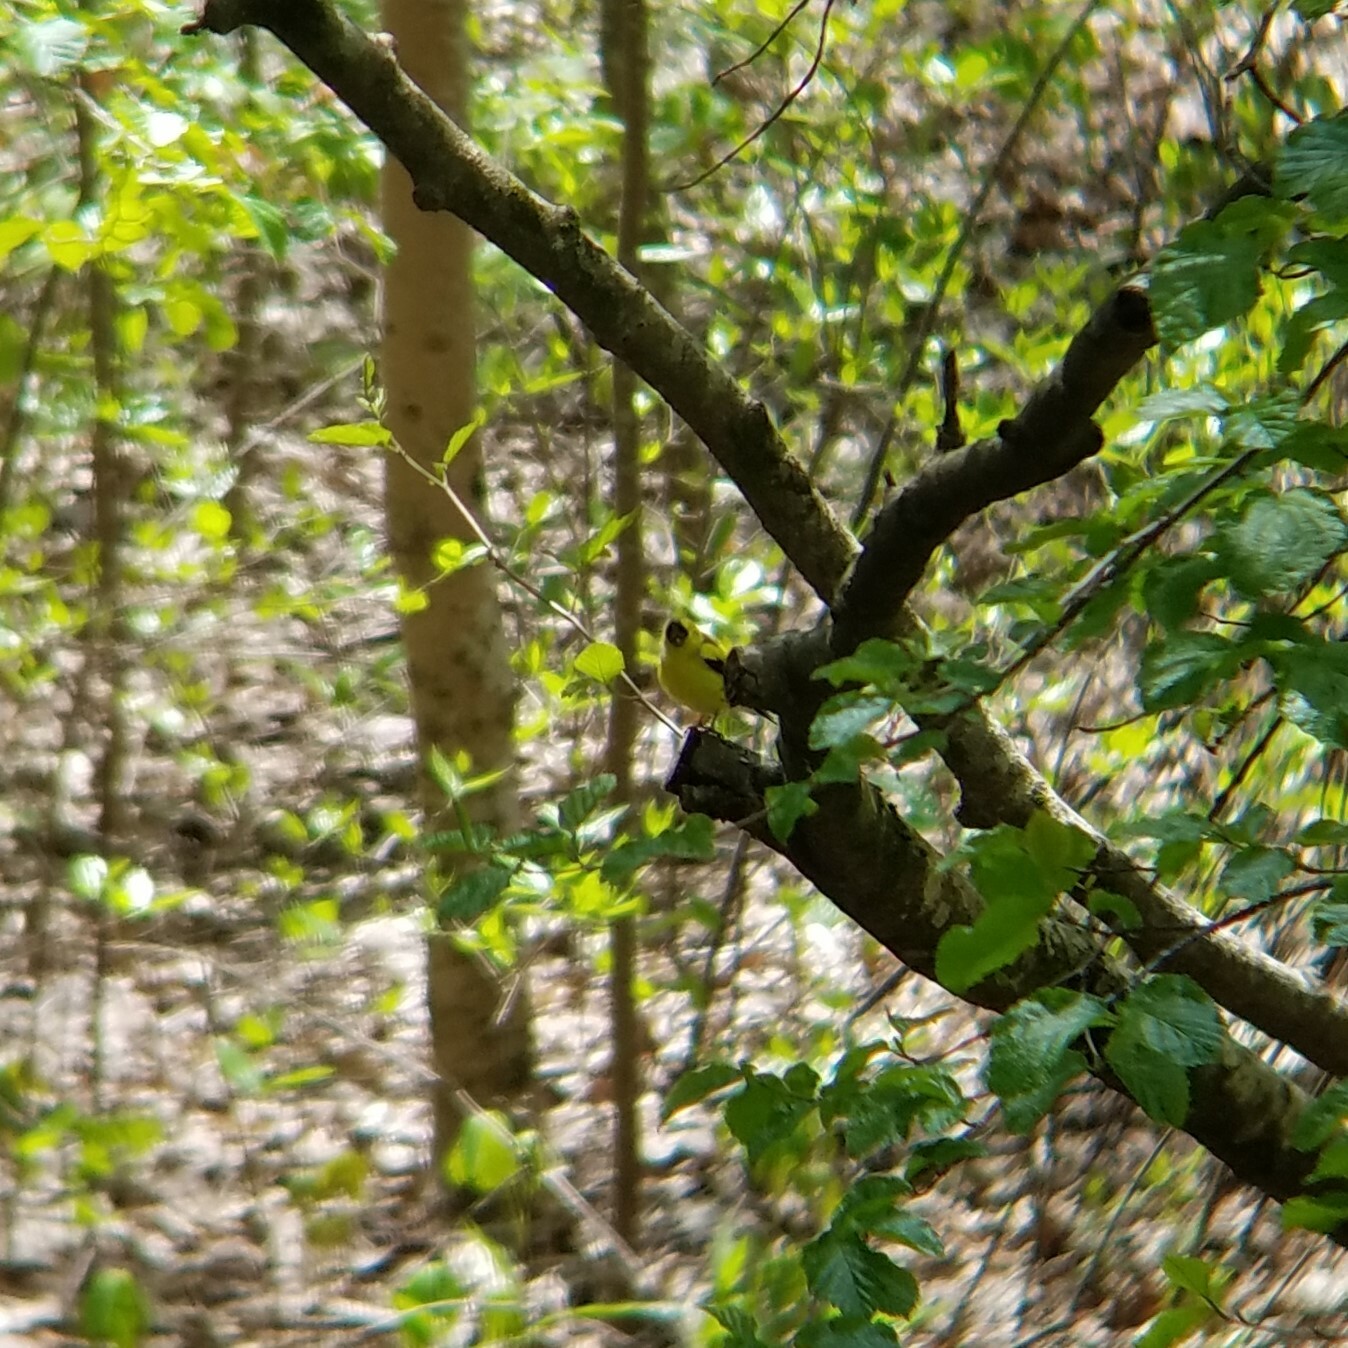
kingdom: Animalia
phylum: Chordata
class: Aves
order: Passeriformes
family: Fringillidae
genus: Spinus
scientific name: Spinus tristis
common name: American goldfinch
